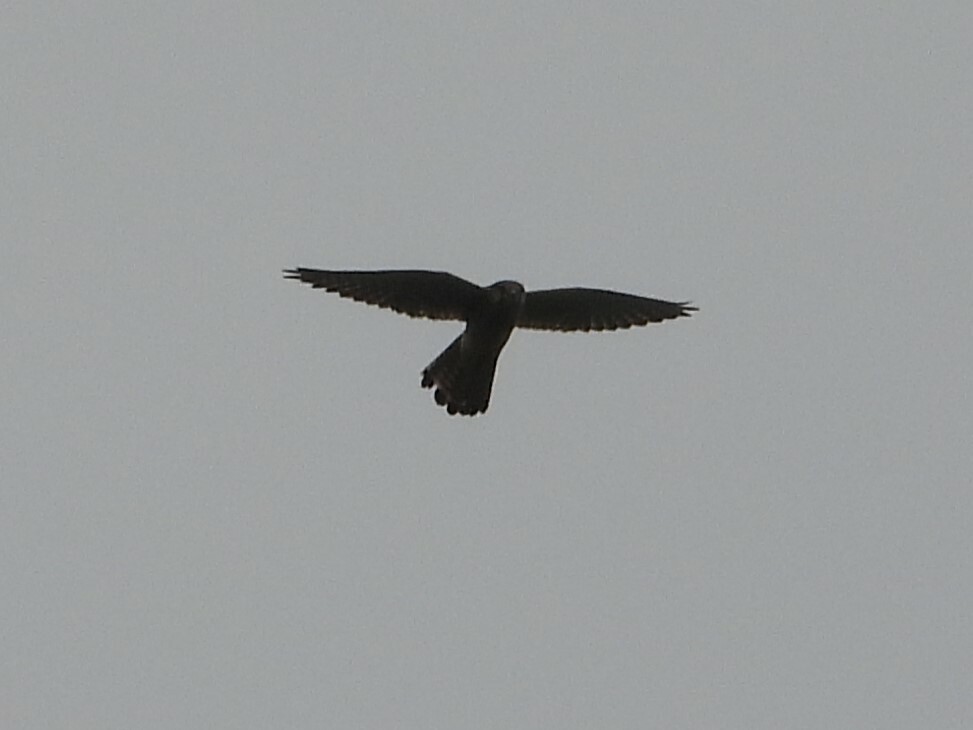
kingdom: Animalia
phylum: Chordata
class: Aves
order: Falconiformes
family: Falconidae
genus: Falco
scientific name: Falco tinnunculus
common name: Common kestrel
